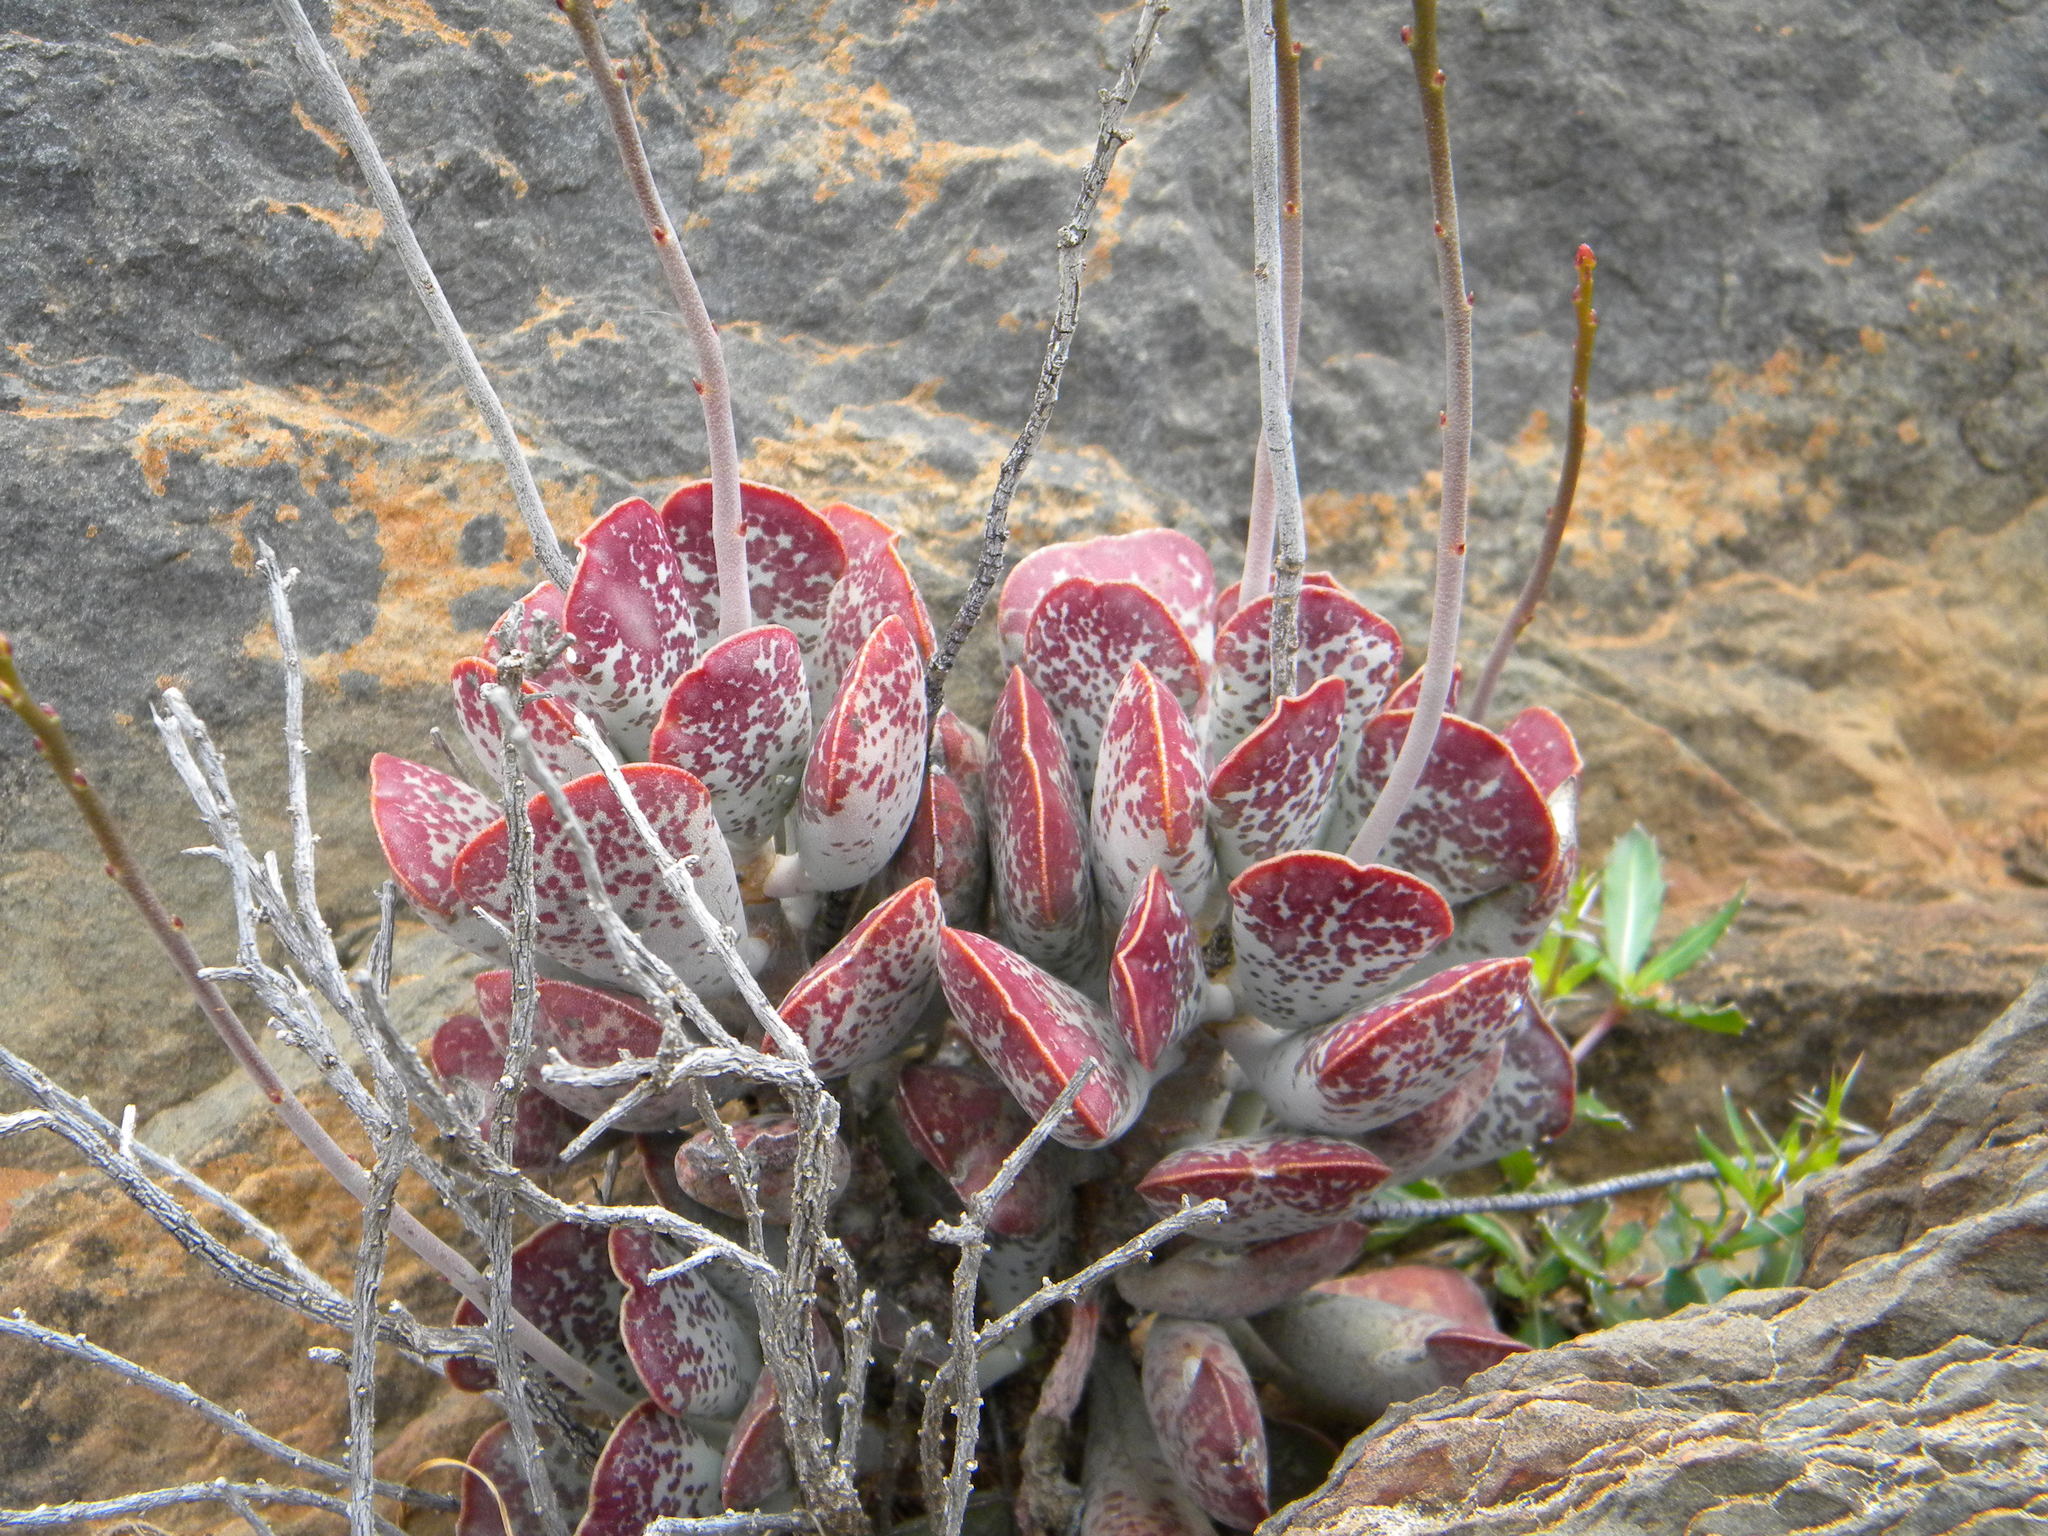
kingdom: Plantae
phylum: Tracheophyta
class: Magnoliopsida
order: Saxifragales
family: Crassulaceae
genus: Adromischus
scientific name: Adromischus triflorus
